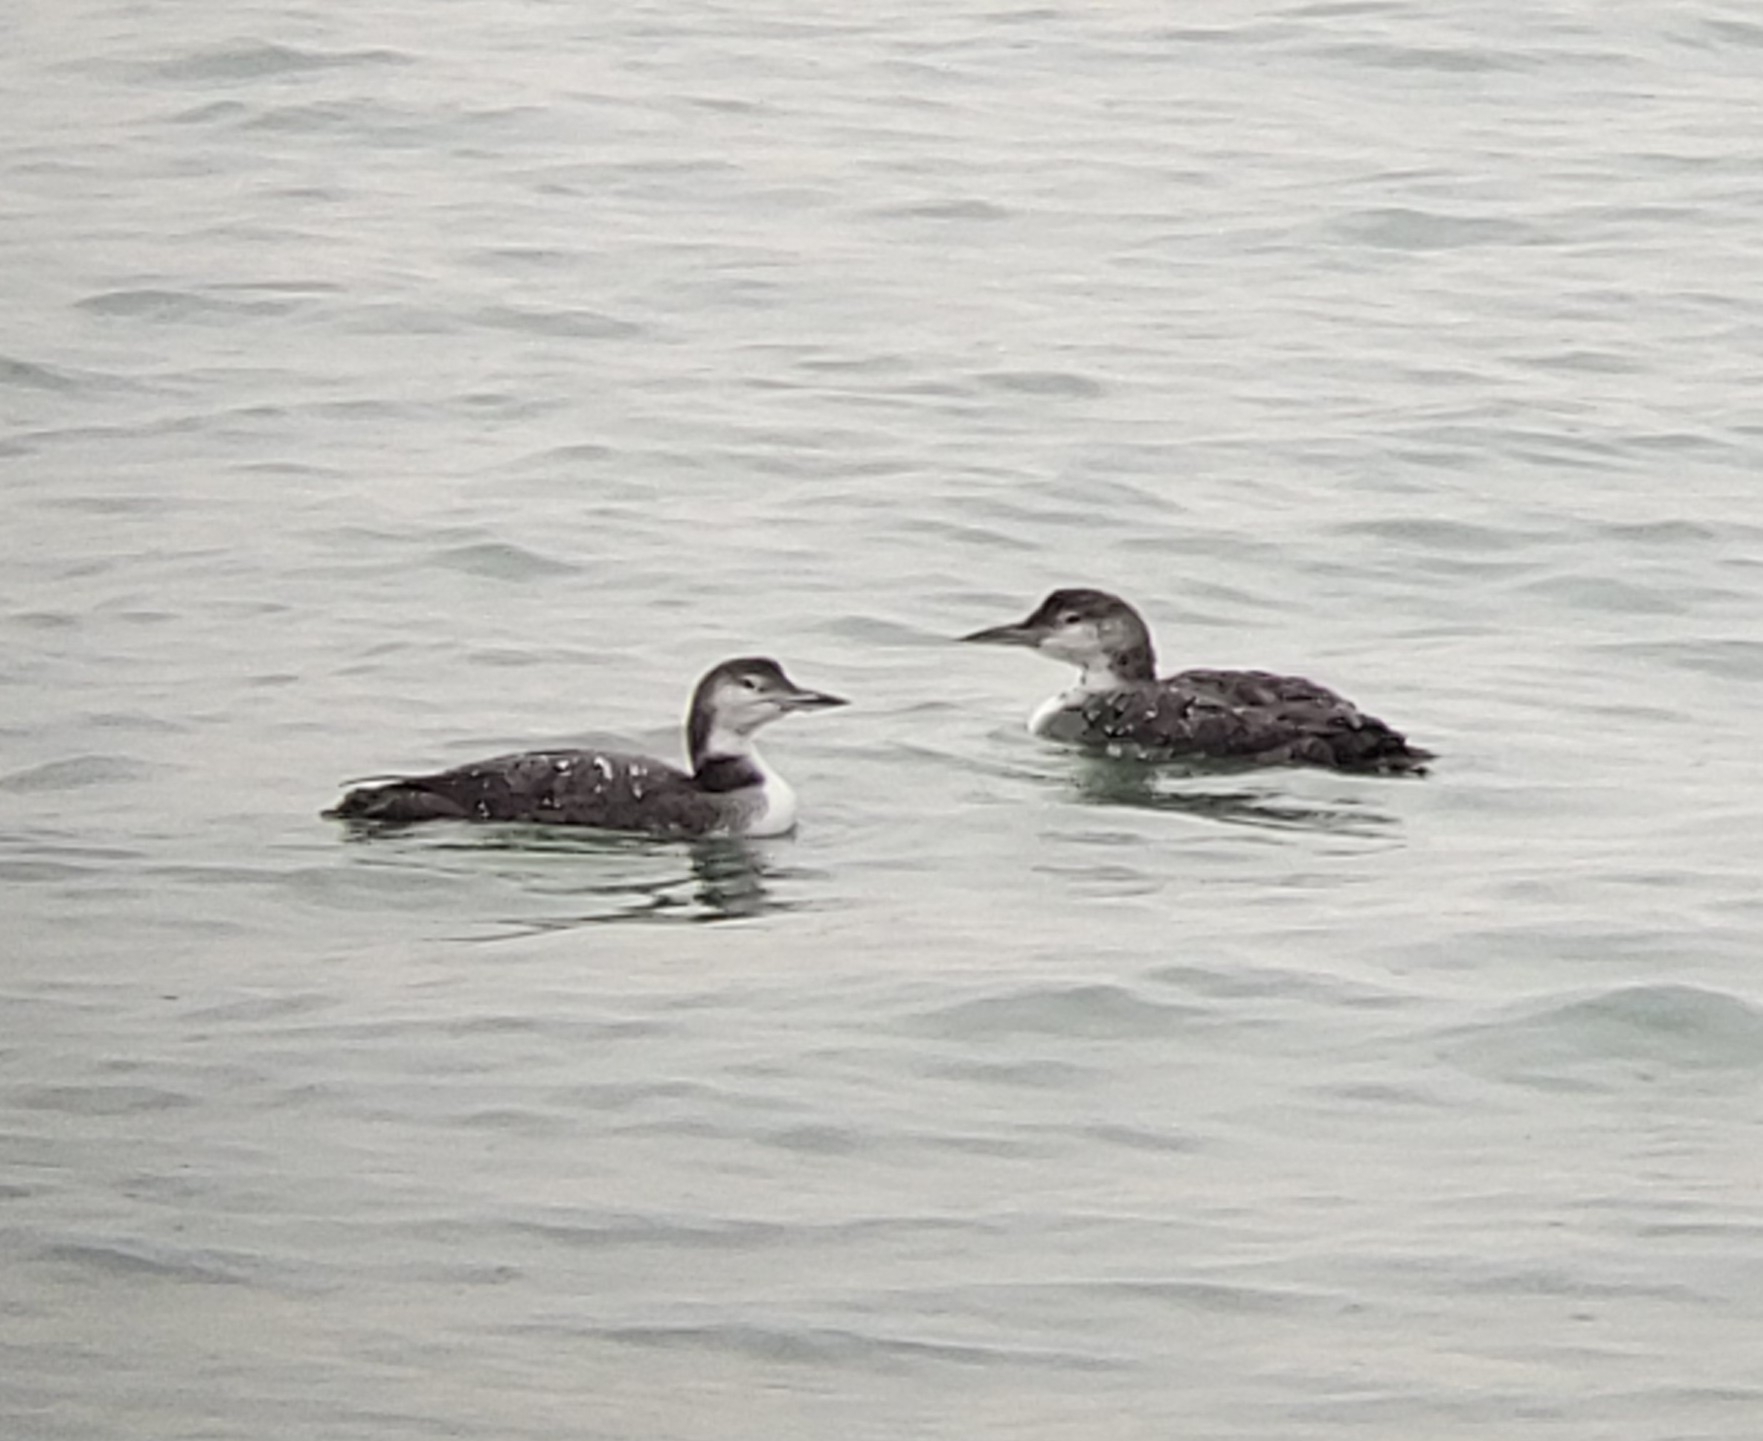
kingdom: Animalia
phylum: Chordata
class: Aves
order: Gaviiformes
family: Gaviidae
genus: Gavia
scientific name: Gavia immer
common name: Common loon
